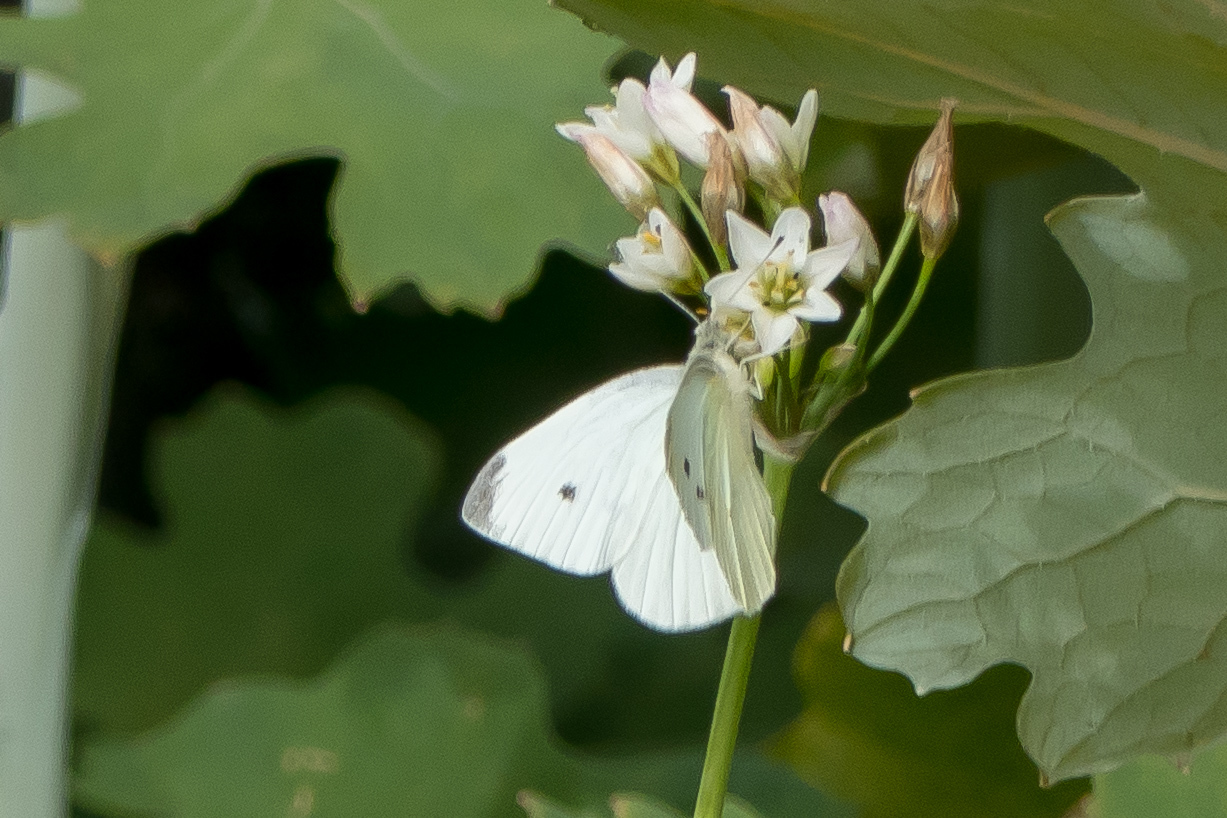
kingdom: Animalia
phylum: Arthropoda
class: Insecta
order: Lepidoptera
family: Pieridae
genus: Pieris
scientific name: Pieris rapae
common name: Small white
